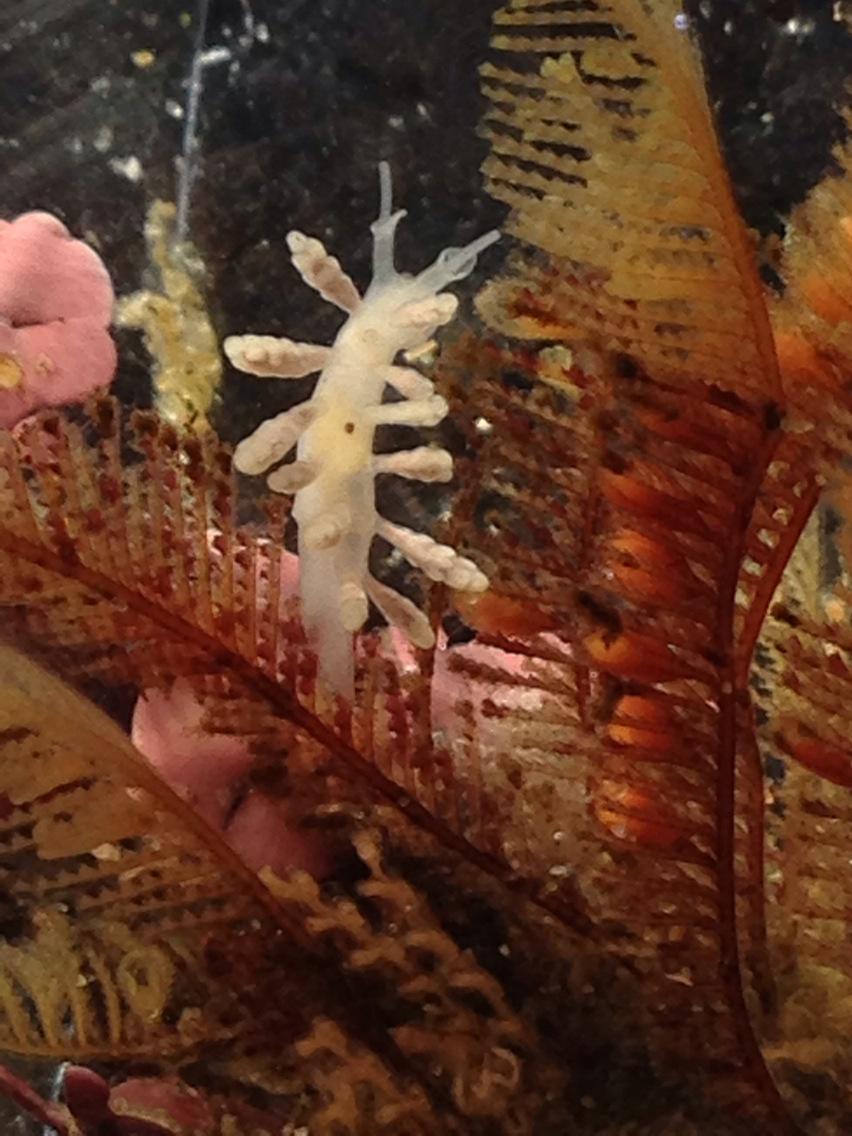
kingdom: Animalia
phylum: Mollusca
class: Gastropoda
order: Nudibranchia
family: Dotidae
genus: Doto
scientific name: Doto amyra
